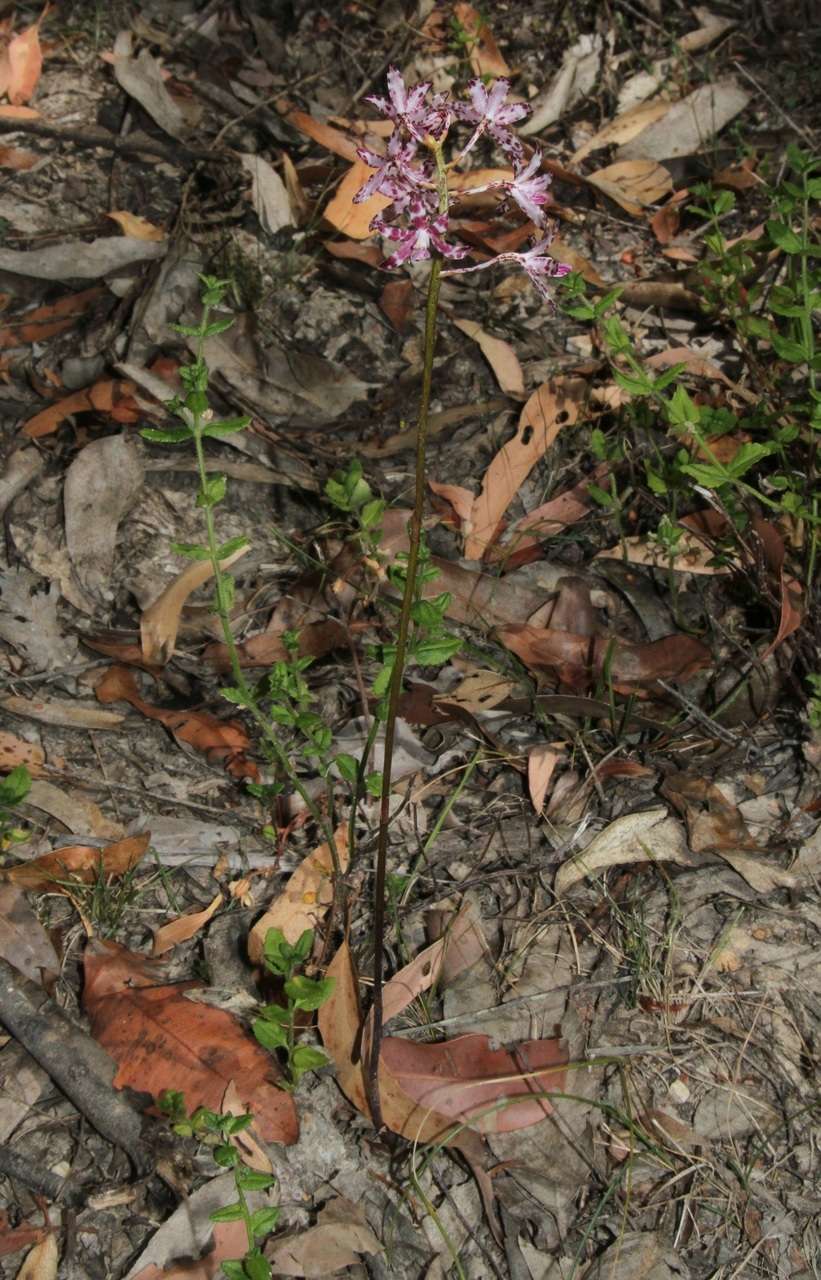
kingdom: Plantae
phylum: Tracheophyta
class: Liliopsida
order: Asparagales
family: Orchidaceae
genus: Dipodium
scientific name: Dipodium variegatum
